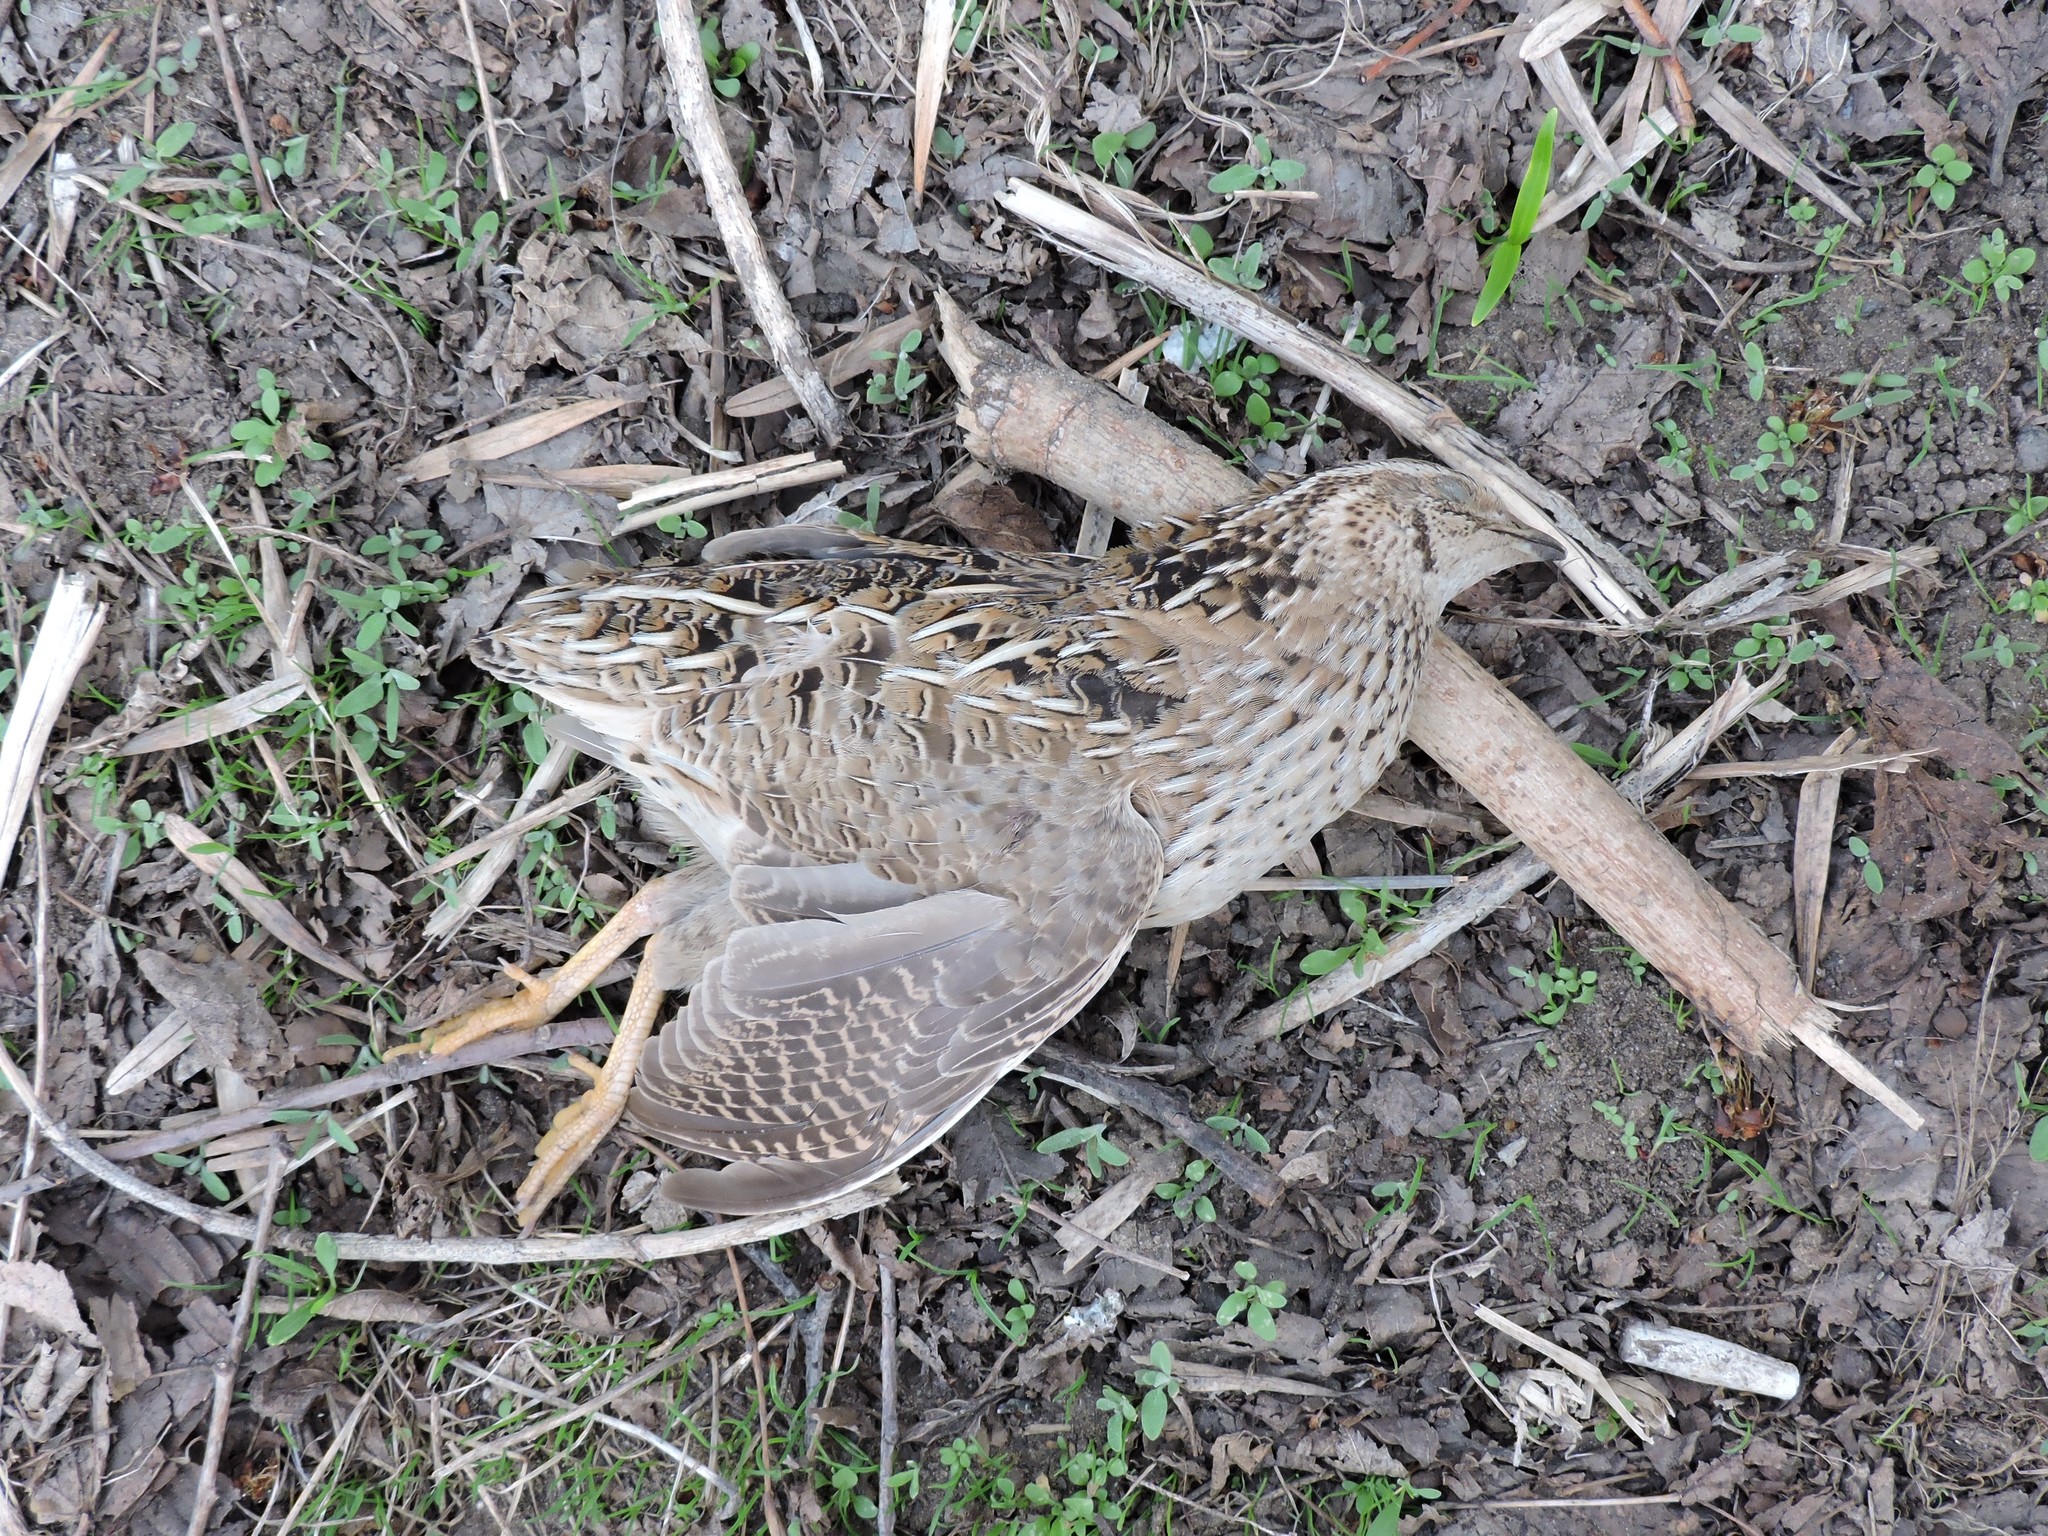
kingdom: Animalia
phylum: Chordata
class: Aves
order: Galliformes
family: Phasianidae
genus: Coturnix
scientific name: Coturnix coturnix
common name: Common quail
